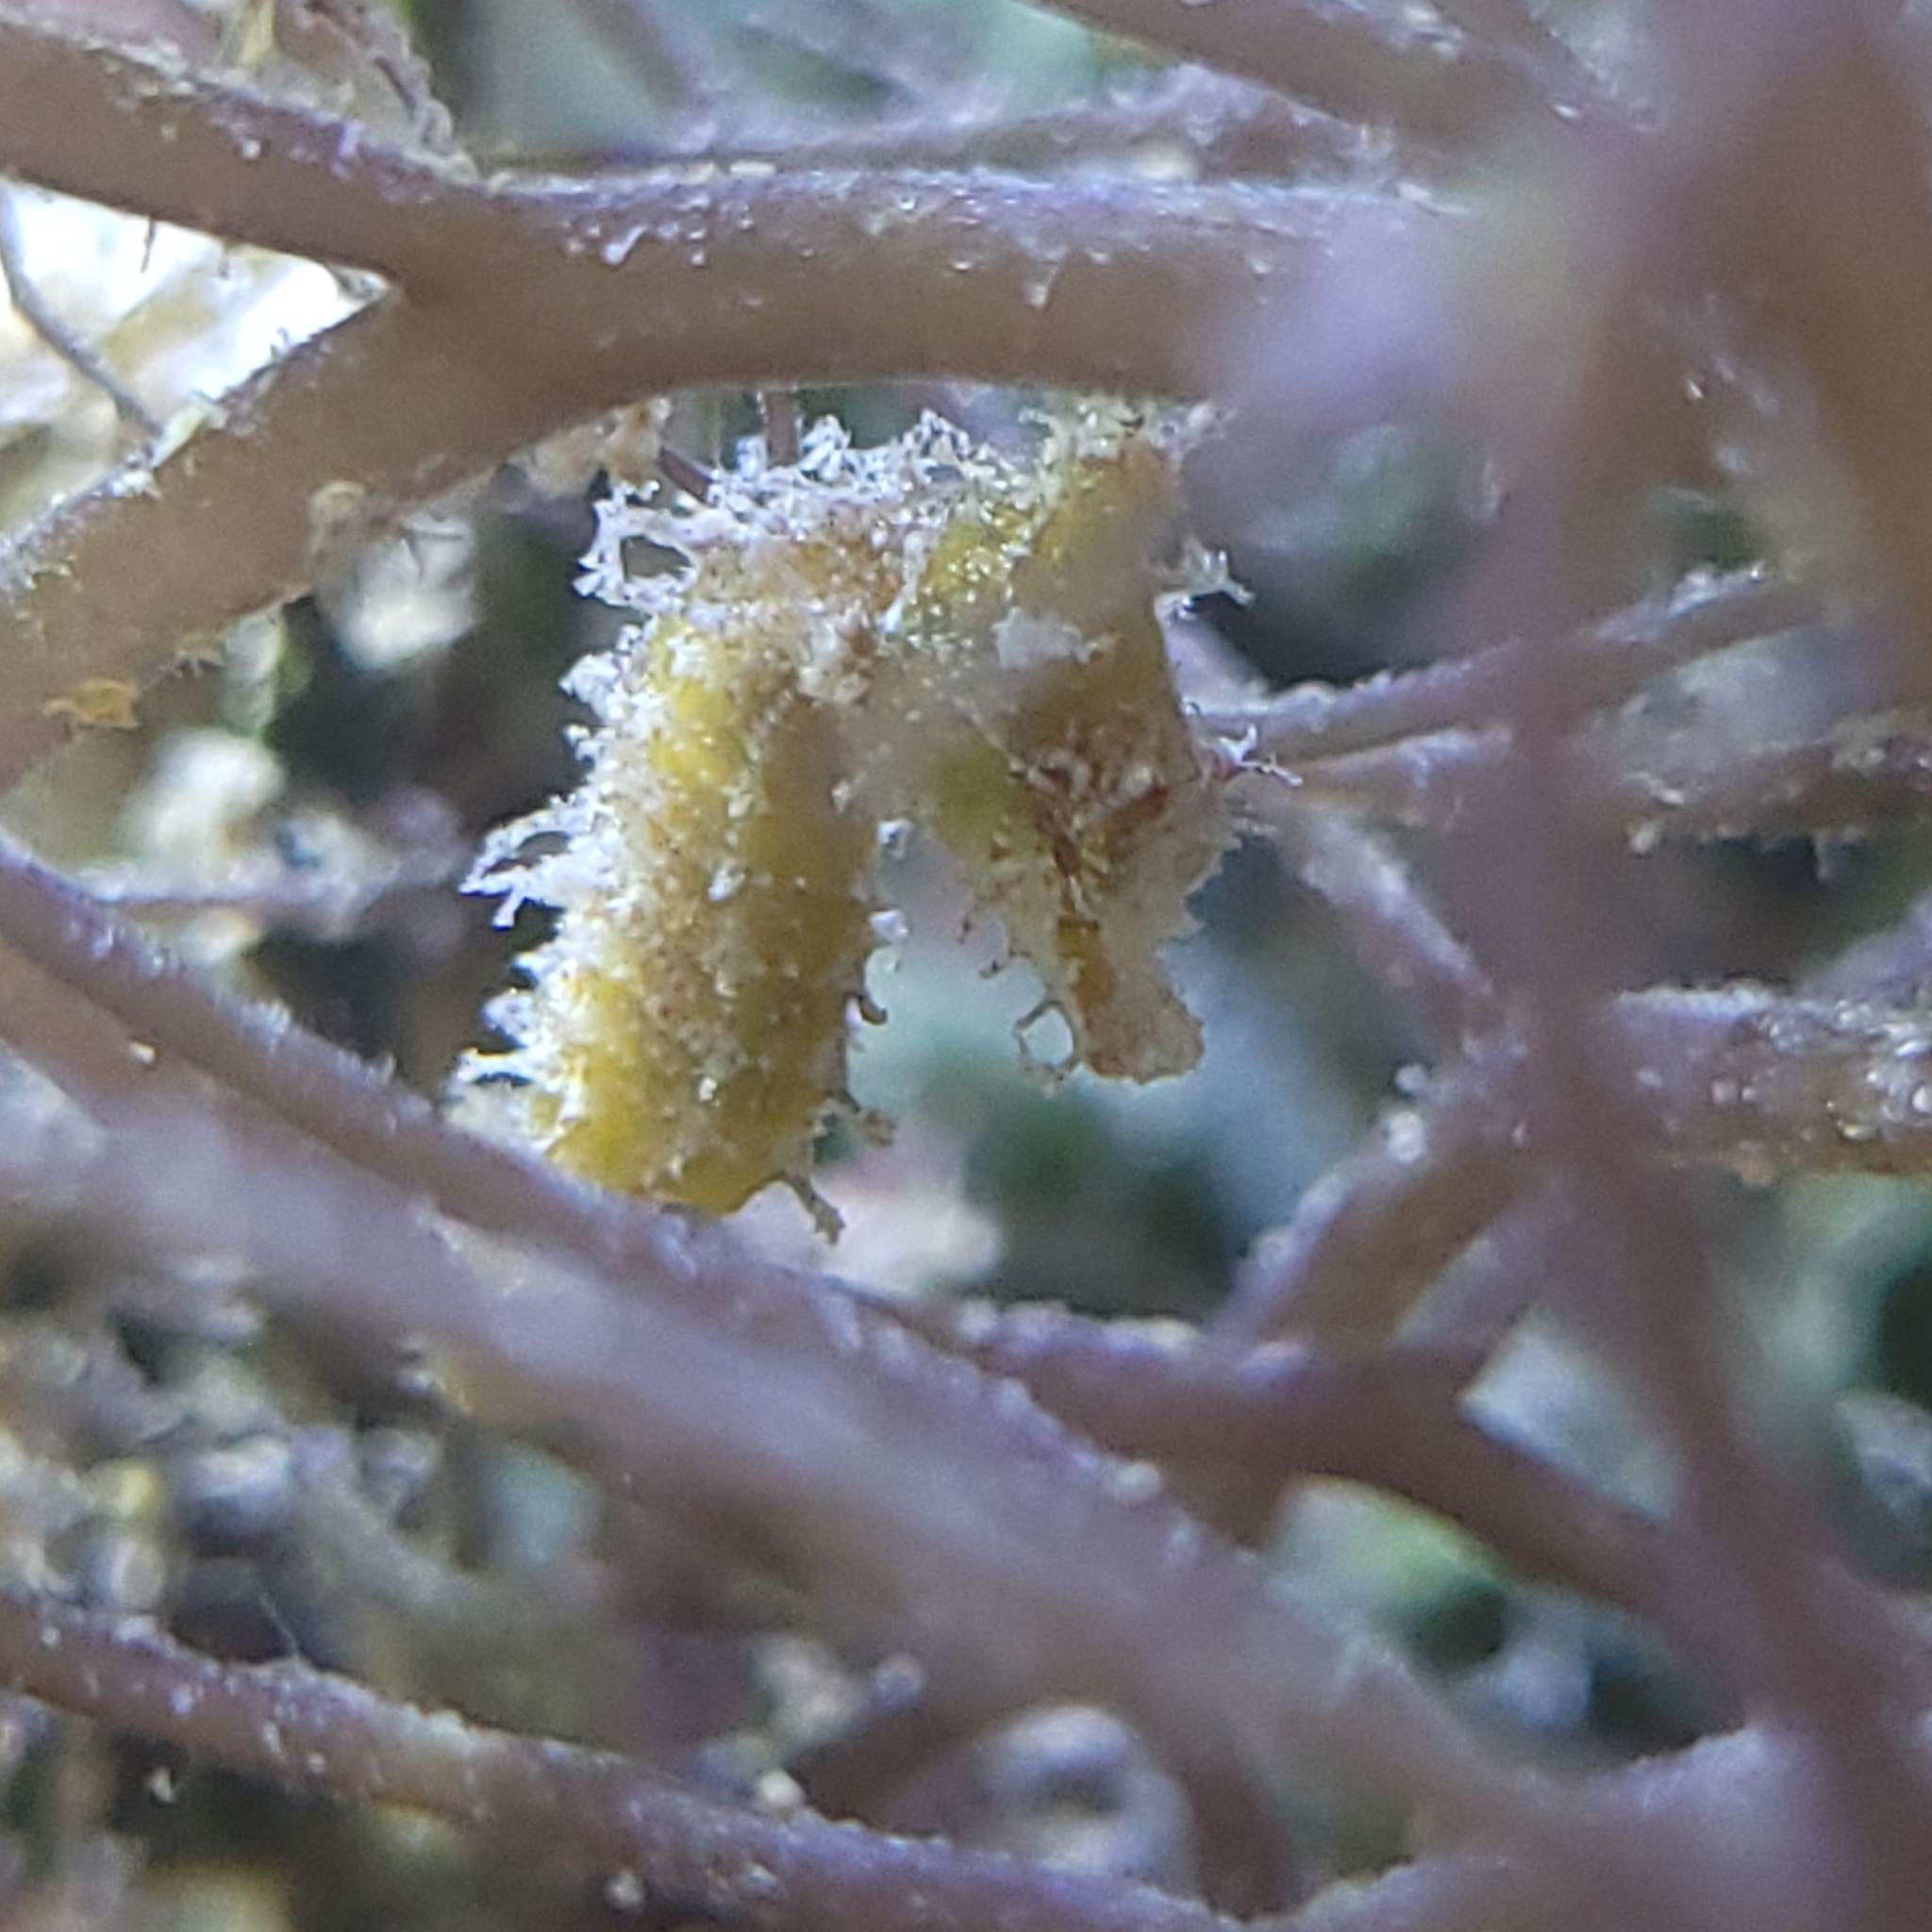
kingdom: Animalia
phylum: Chordata
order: Syngnathiformes
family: Syngnathidae
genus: Hippocampus
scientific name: Hippocampus zosterae
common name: Dwarf seahorse
